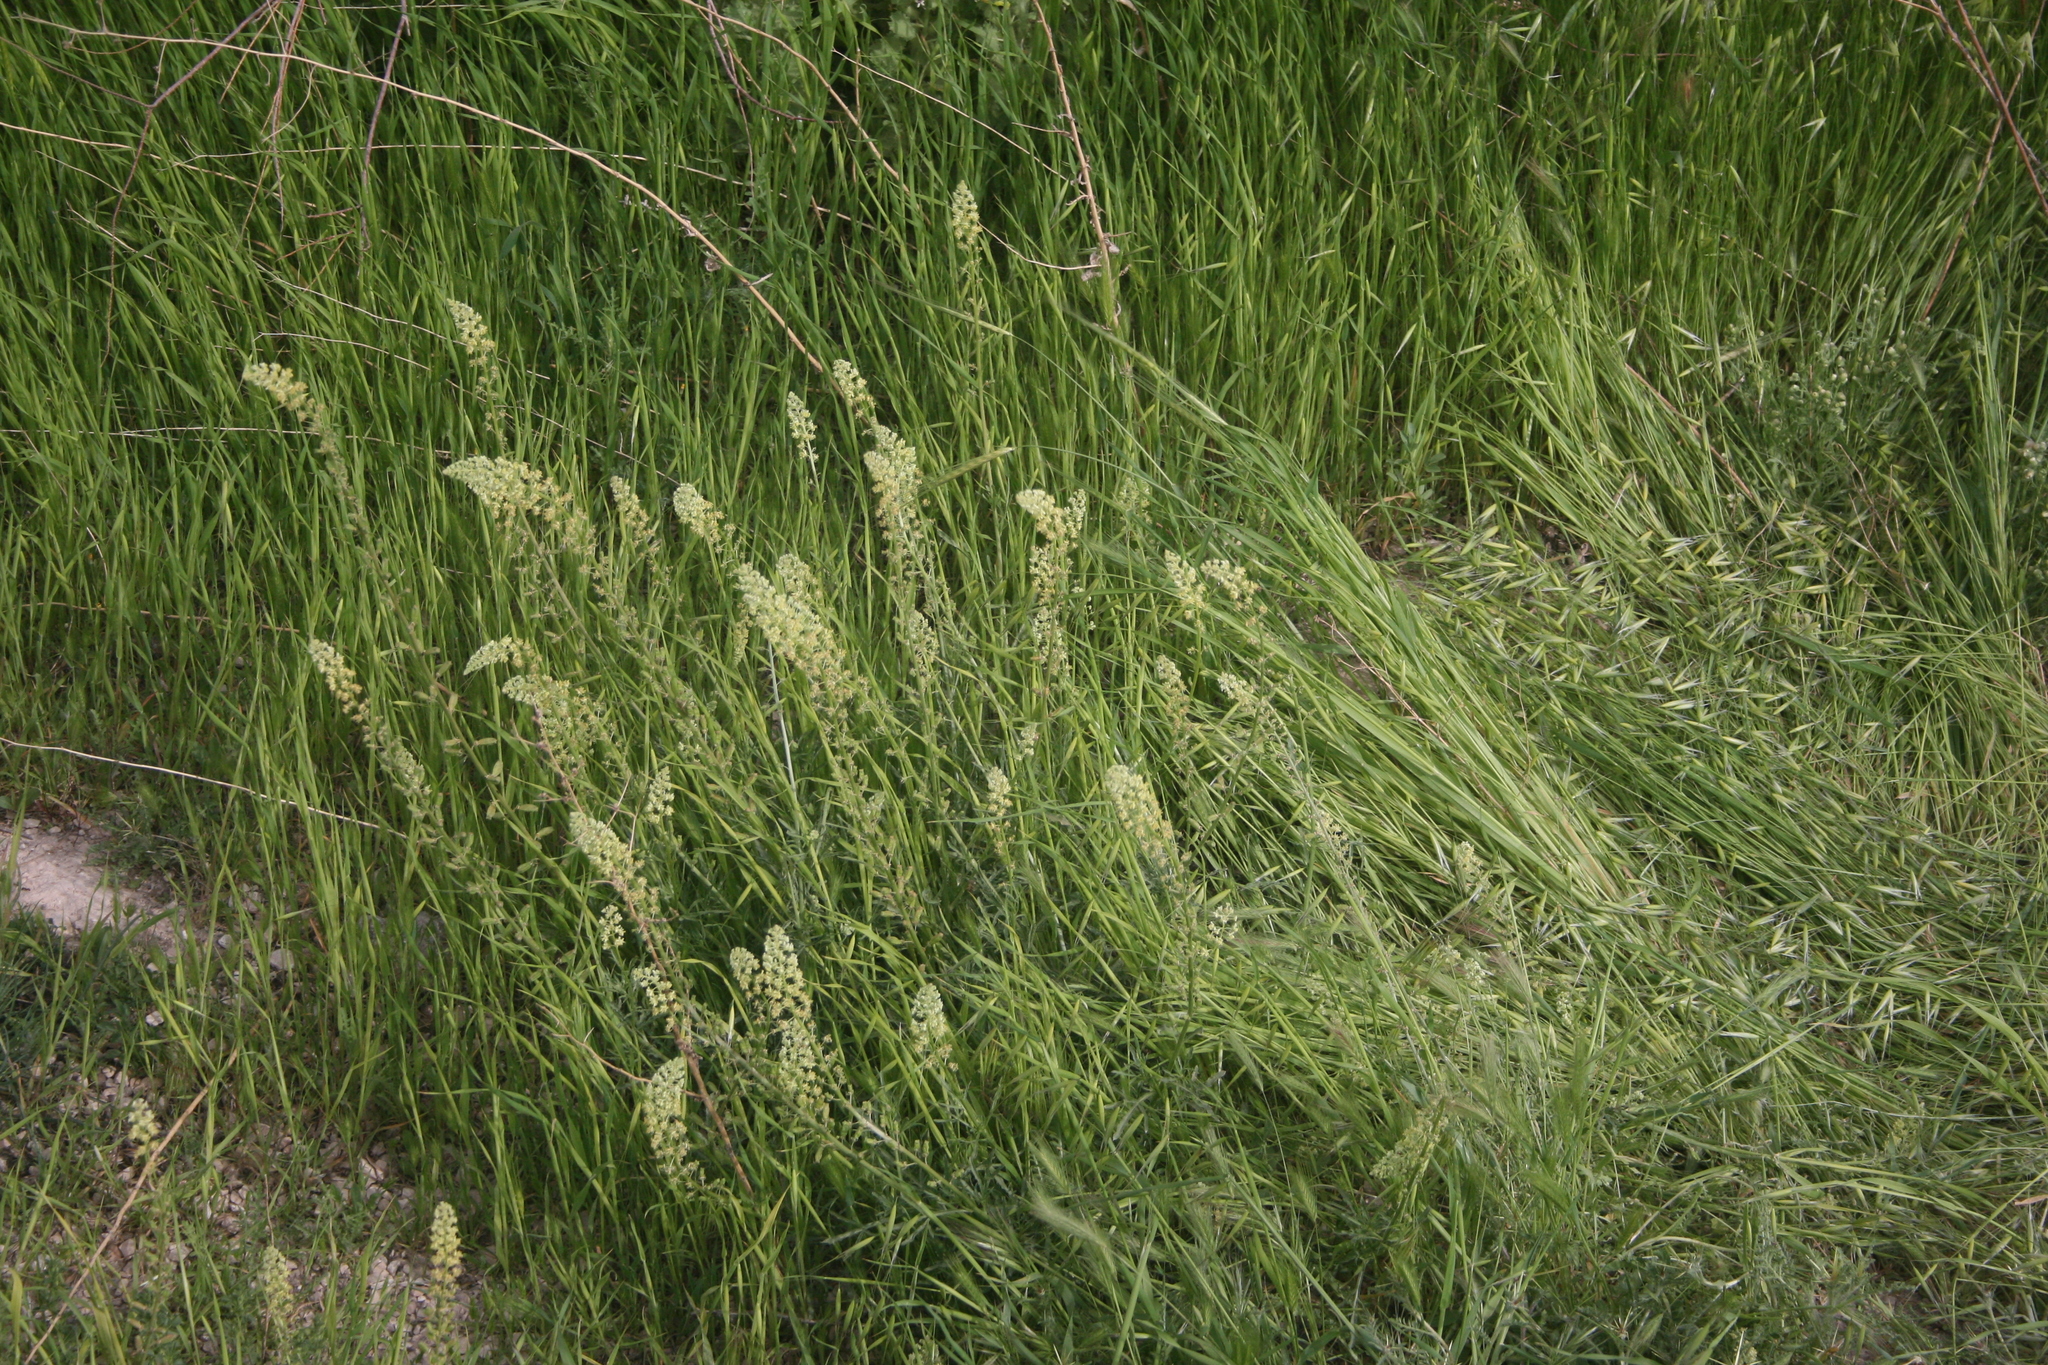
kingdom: Plantae
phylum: Tracheophyta
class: Magnoliopsida
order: Brassicales
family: Resedaceae
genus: Reseda
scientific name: Reseda lutea
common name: Wild mignonette
